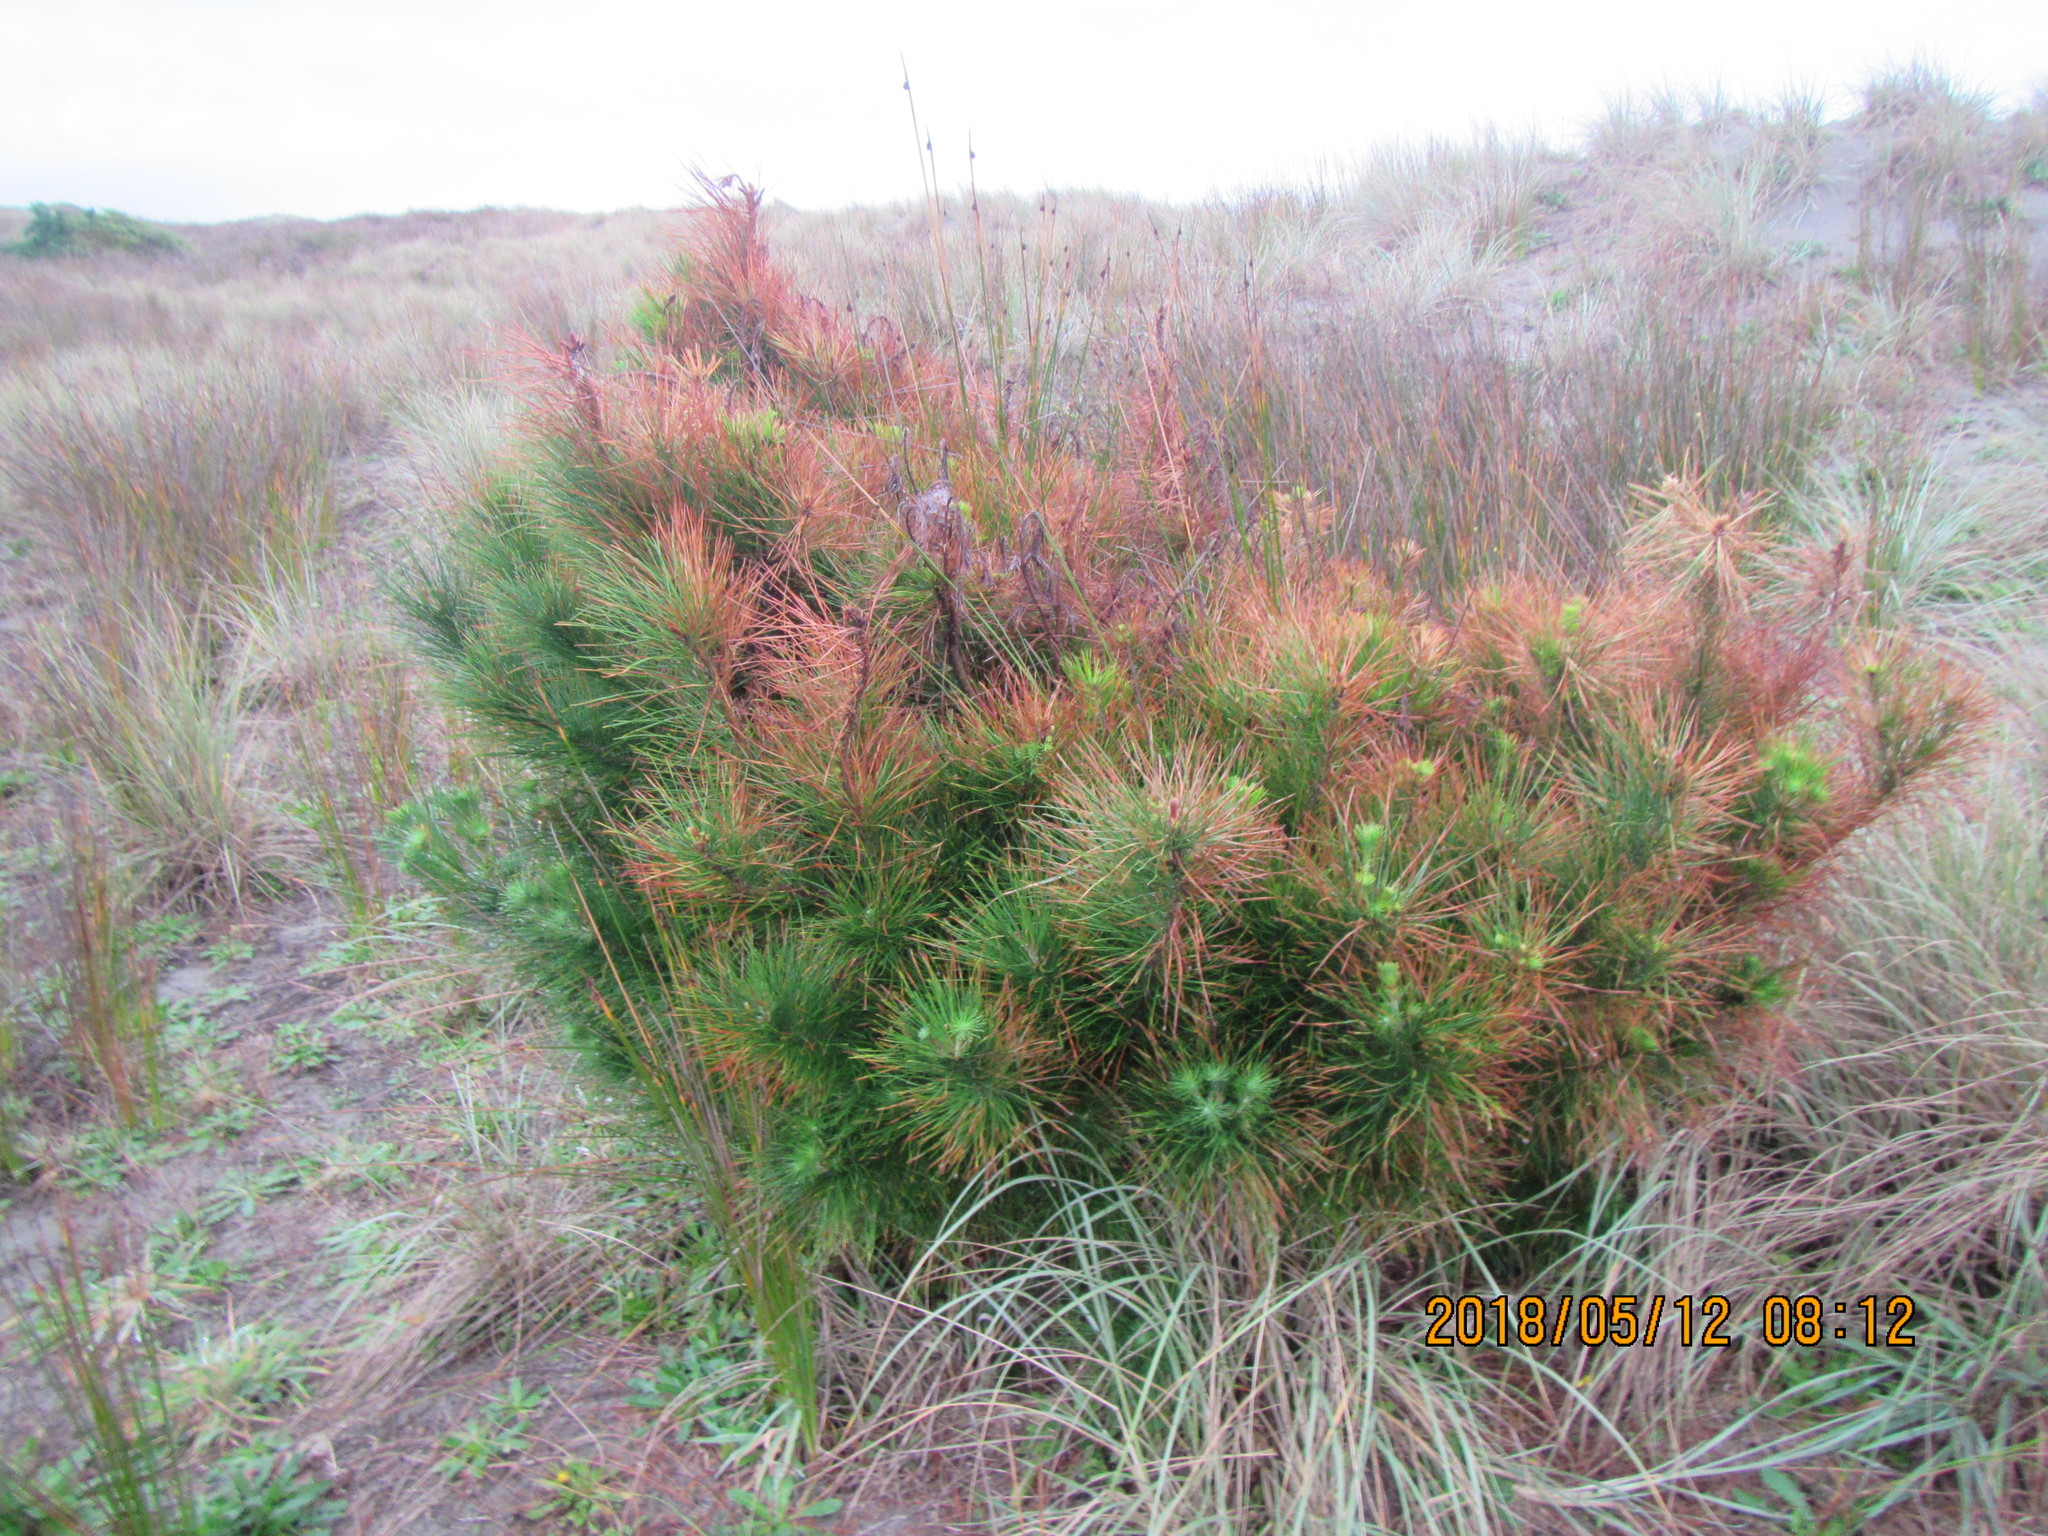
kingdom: Plantae
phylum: Tracheophyta
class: Pinopsida
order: Pinales
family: Pinaceae
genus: Pinus
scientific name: Pinus radiata
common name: Monterey pine
